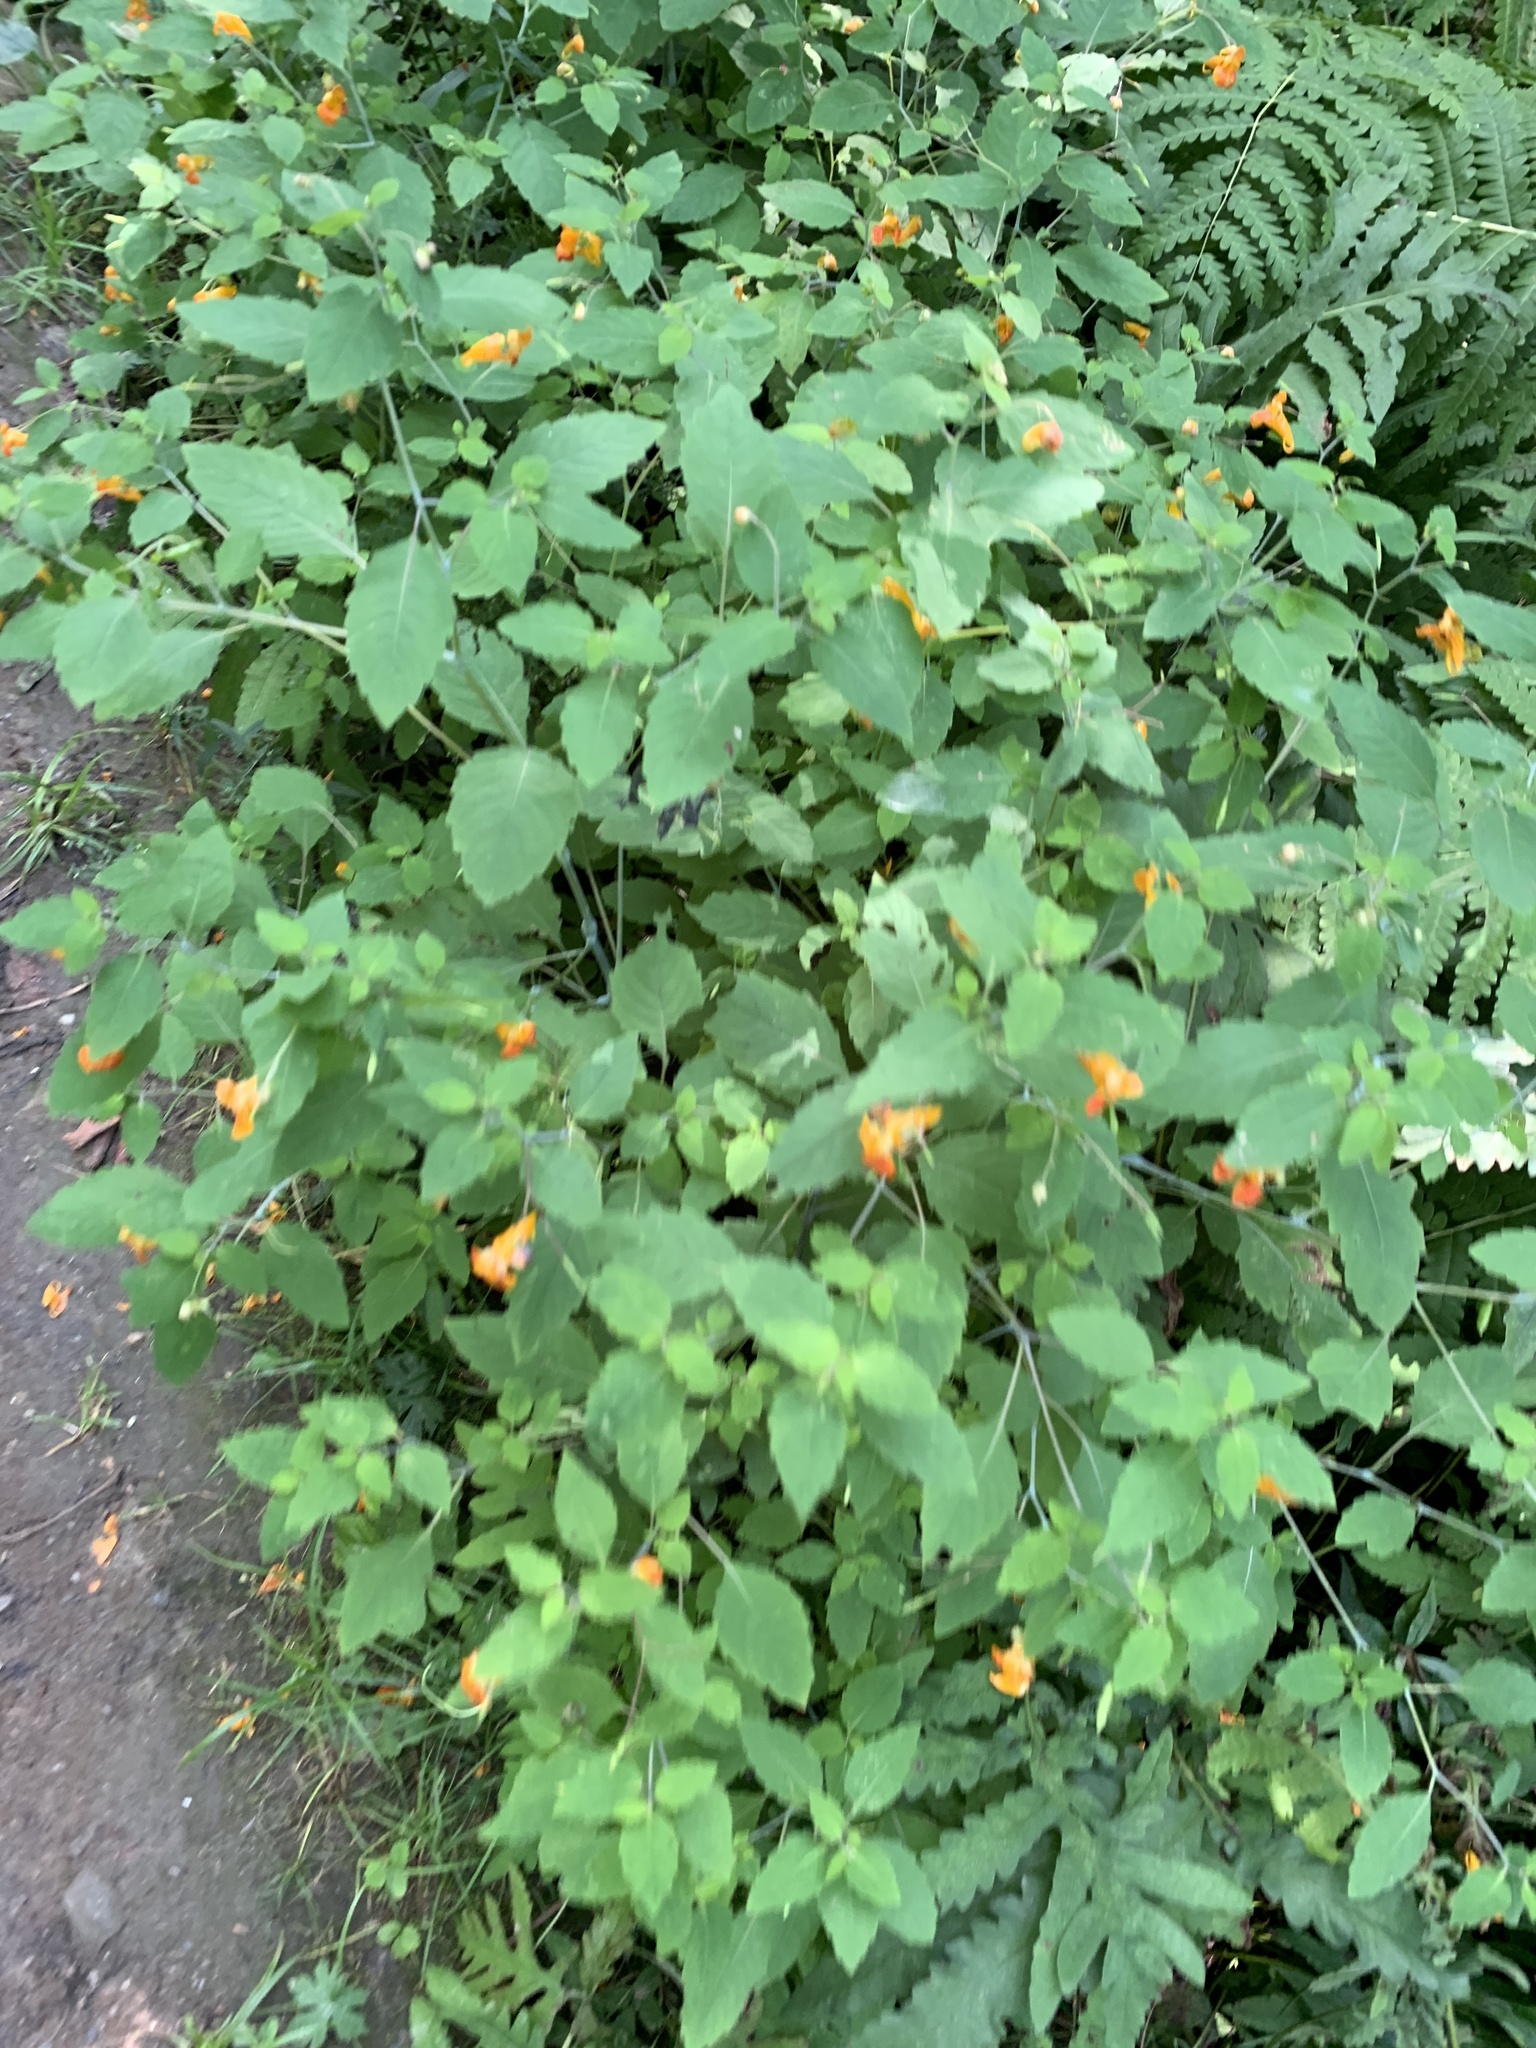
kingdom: Plantae
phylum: Tracheophyta
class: Magnoliopsida
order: Ericales
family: Balsaminaceae
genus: Impatiens
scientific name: Impatiens capensis
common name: Orange balsam
